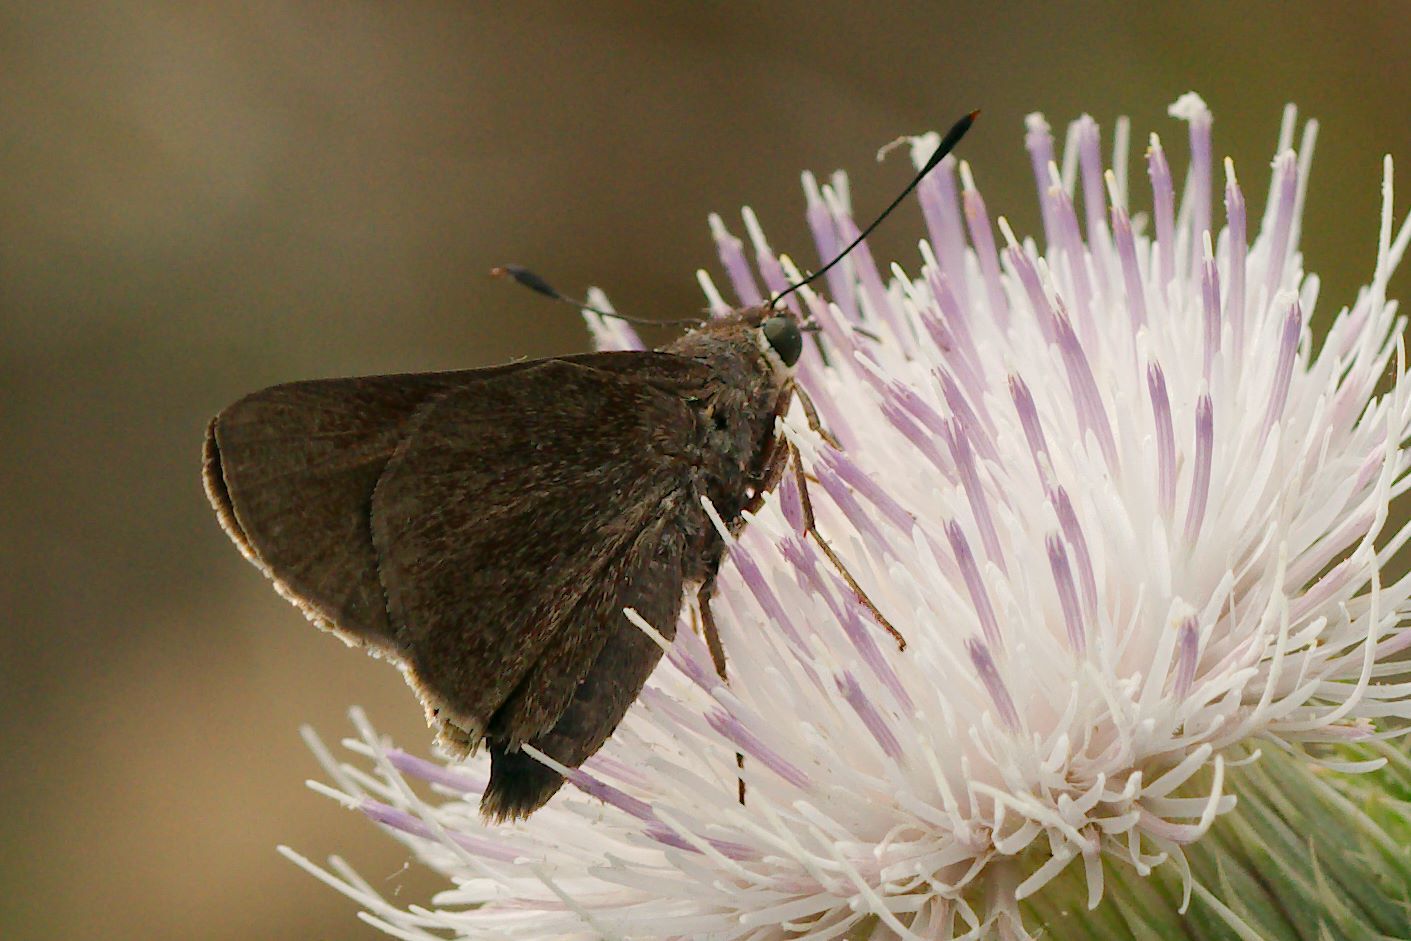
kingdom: Animalia
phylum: Arthropoda
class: Insecta
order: Lepidoptera
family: Hesperiidae
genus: Asbolis
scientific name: Asbolis capucinus
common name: Monk skipper
